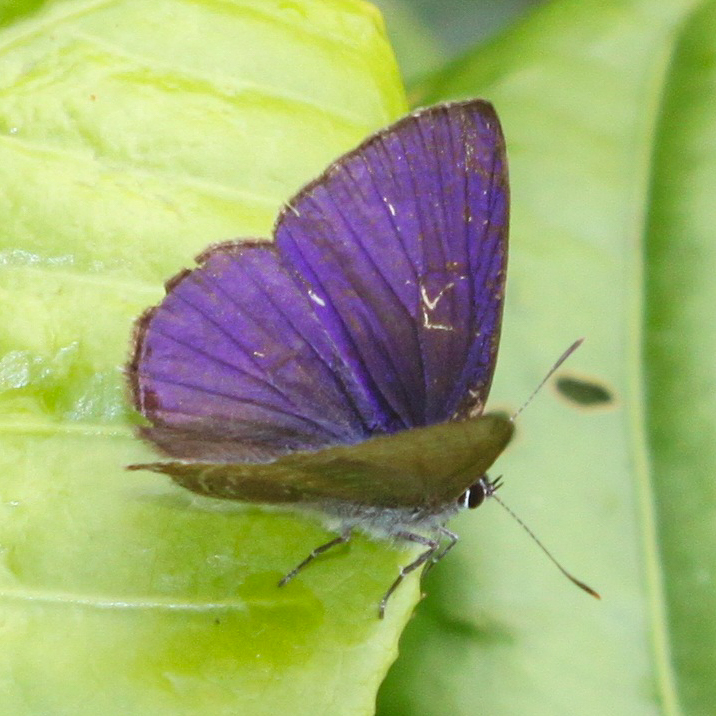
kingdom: Animalia
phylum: Arthropoda
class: Insecta
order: Lepidoptera
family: Lycaenidae
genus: Anthene
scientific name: Anthene emolus
